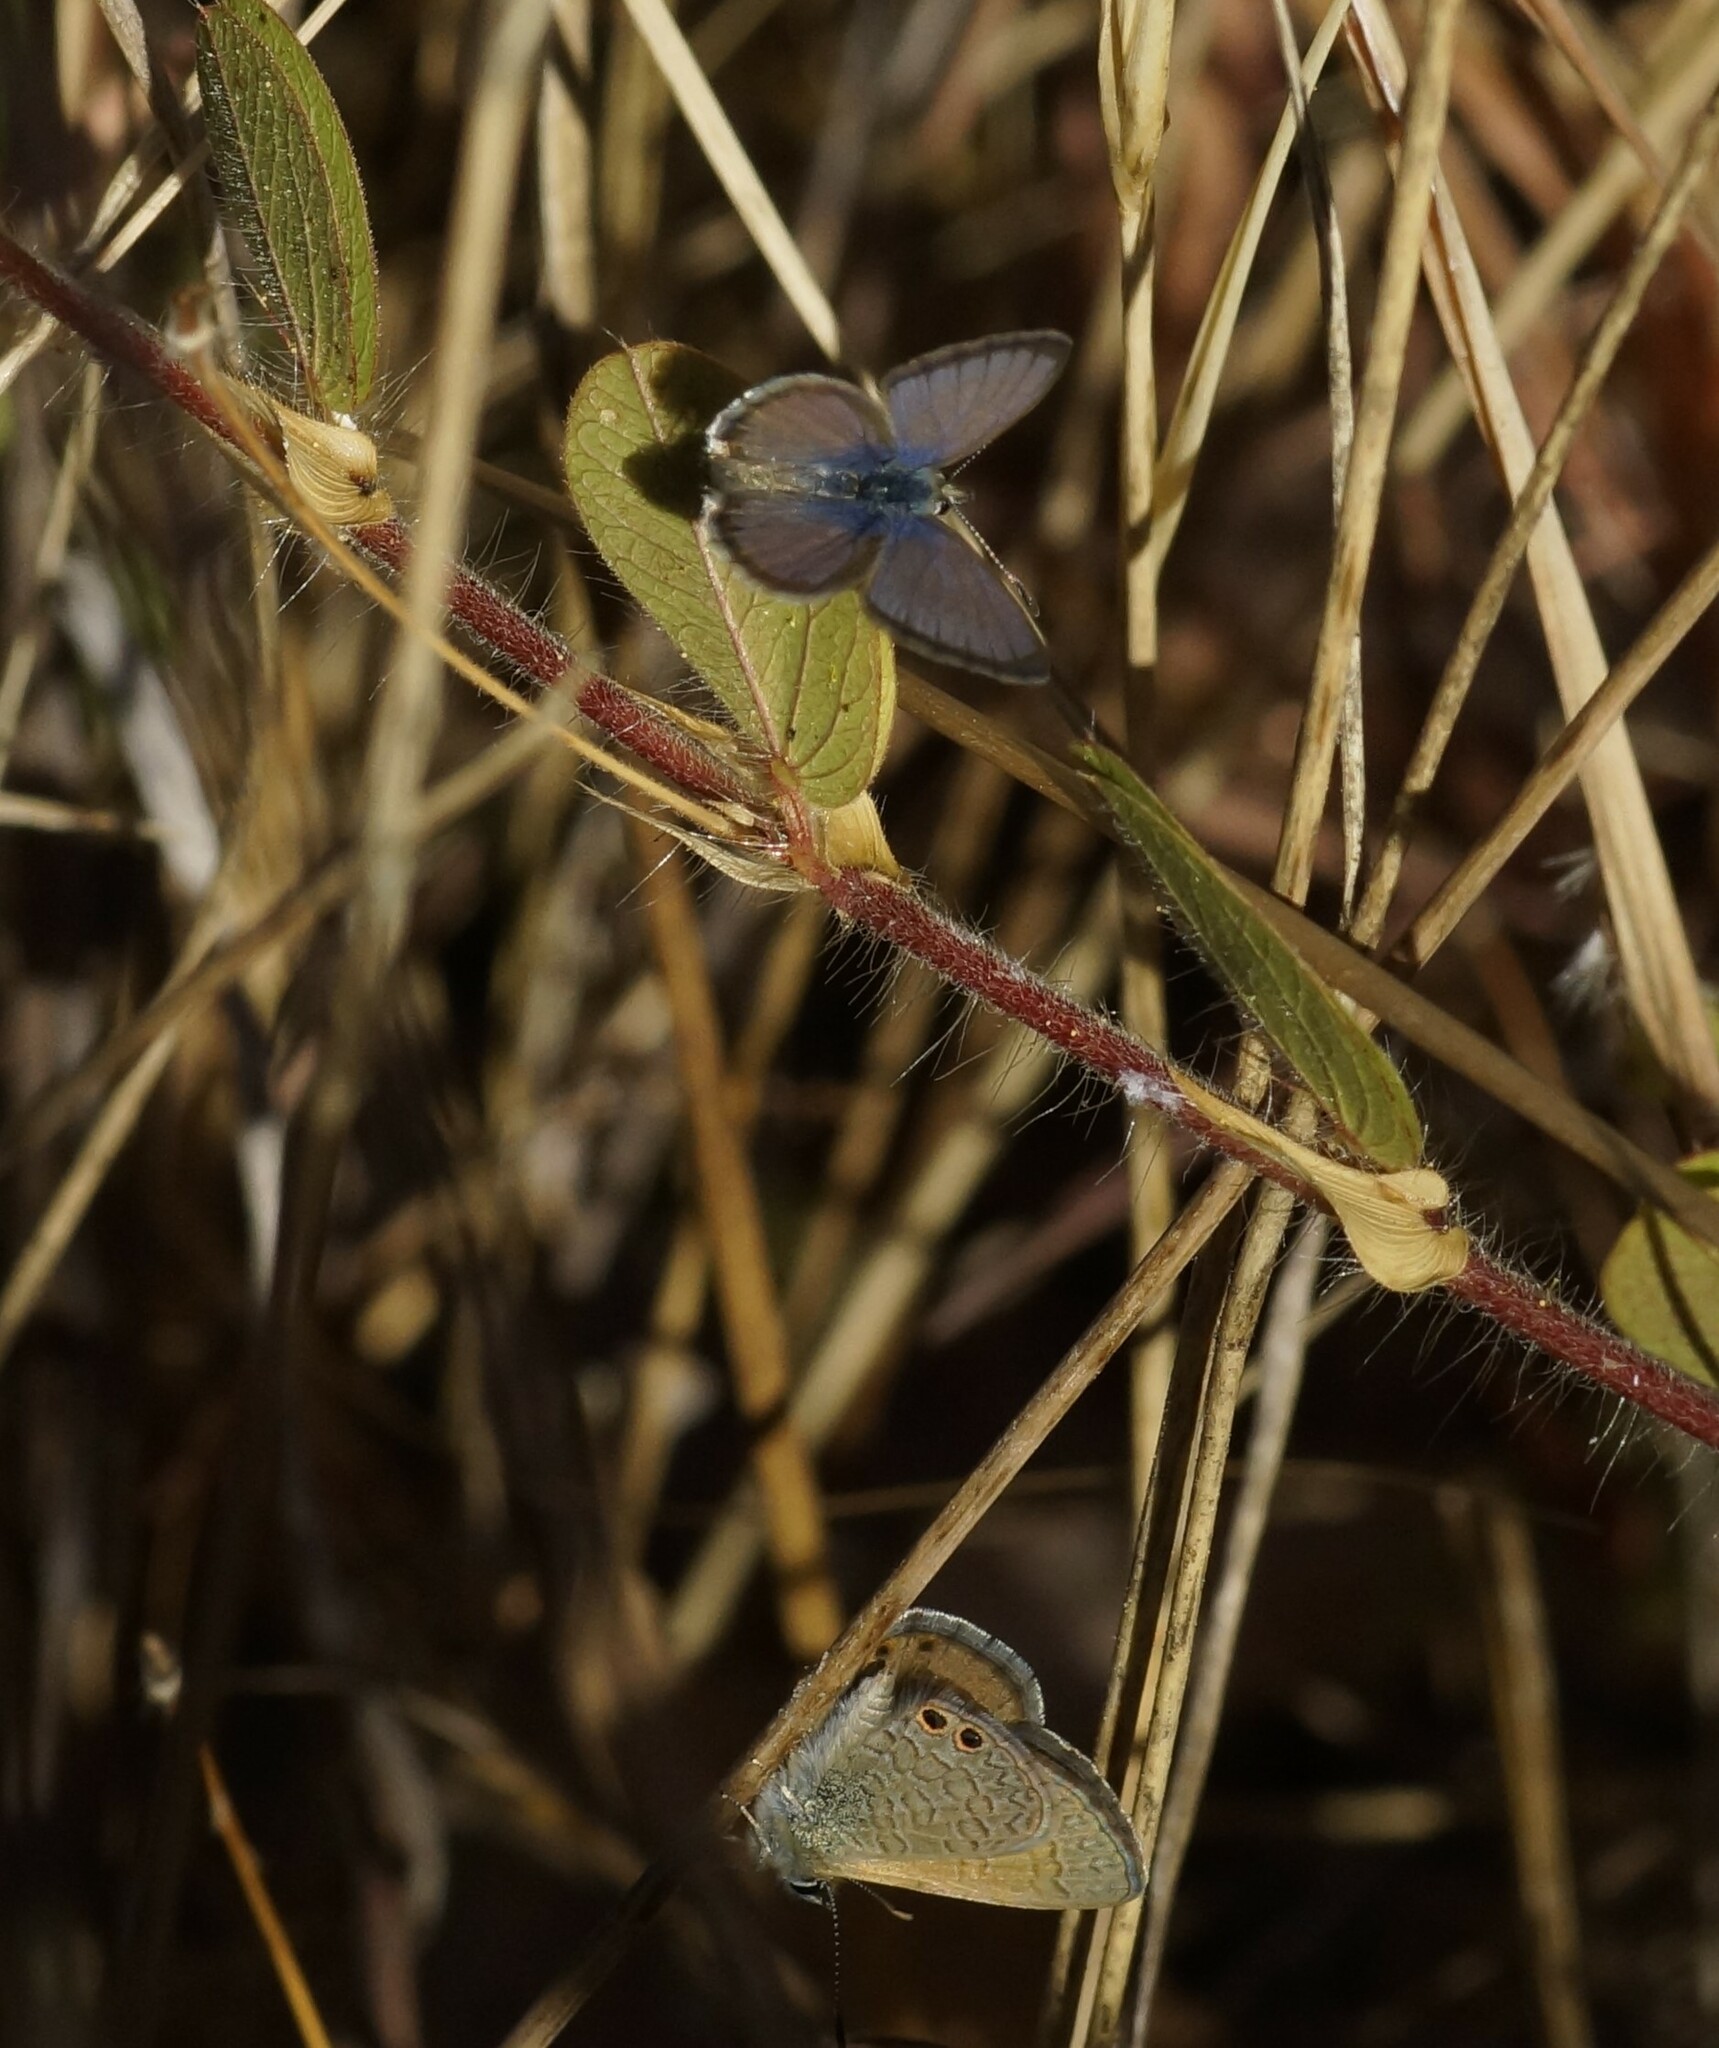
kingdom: Animalia
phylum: Arthropoda
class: Insecta
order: Lepidoptera
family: Lycaenidae
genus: Nacaduba
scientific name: Nacaduba biocellata
